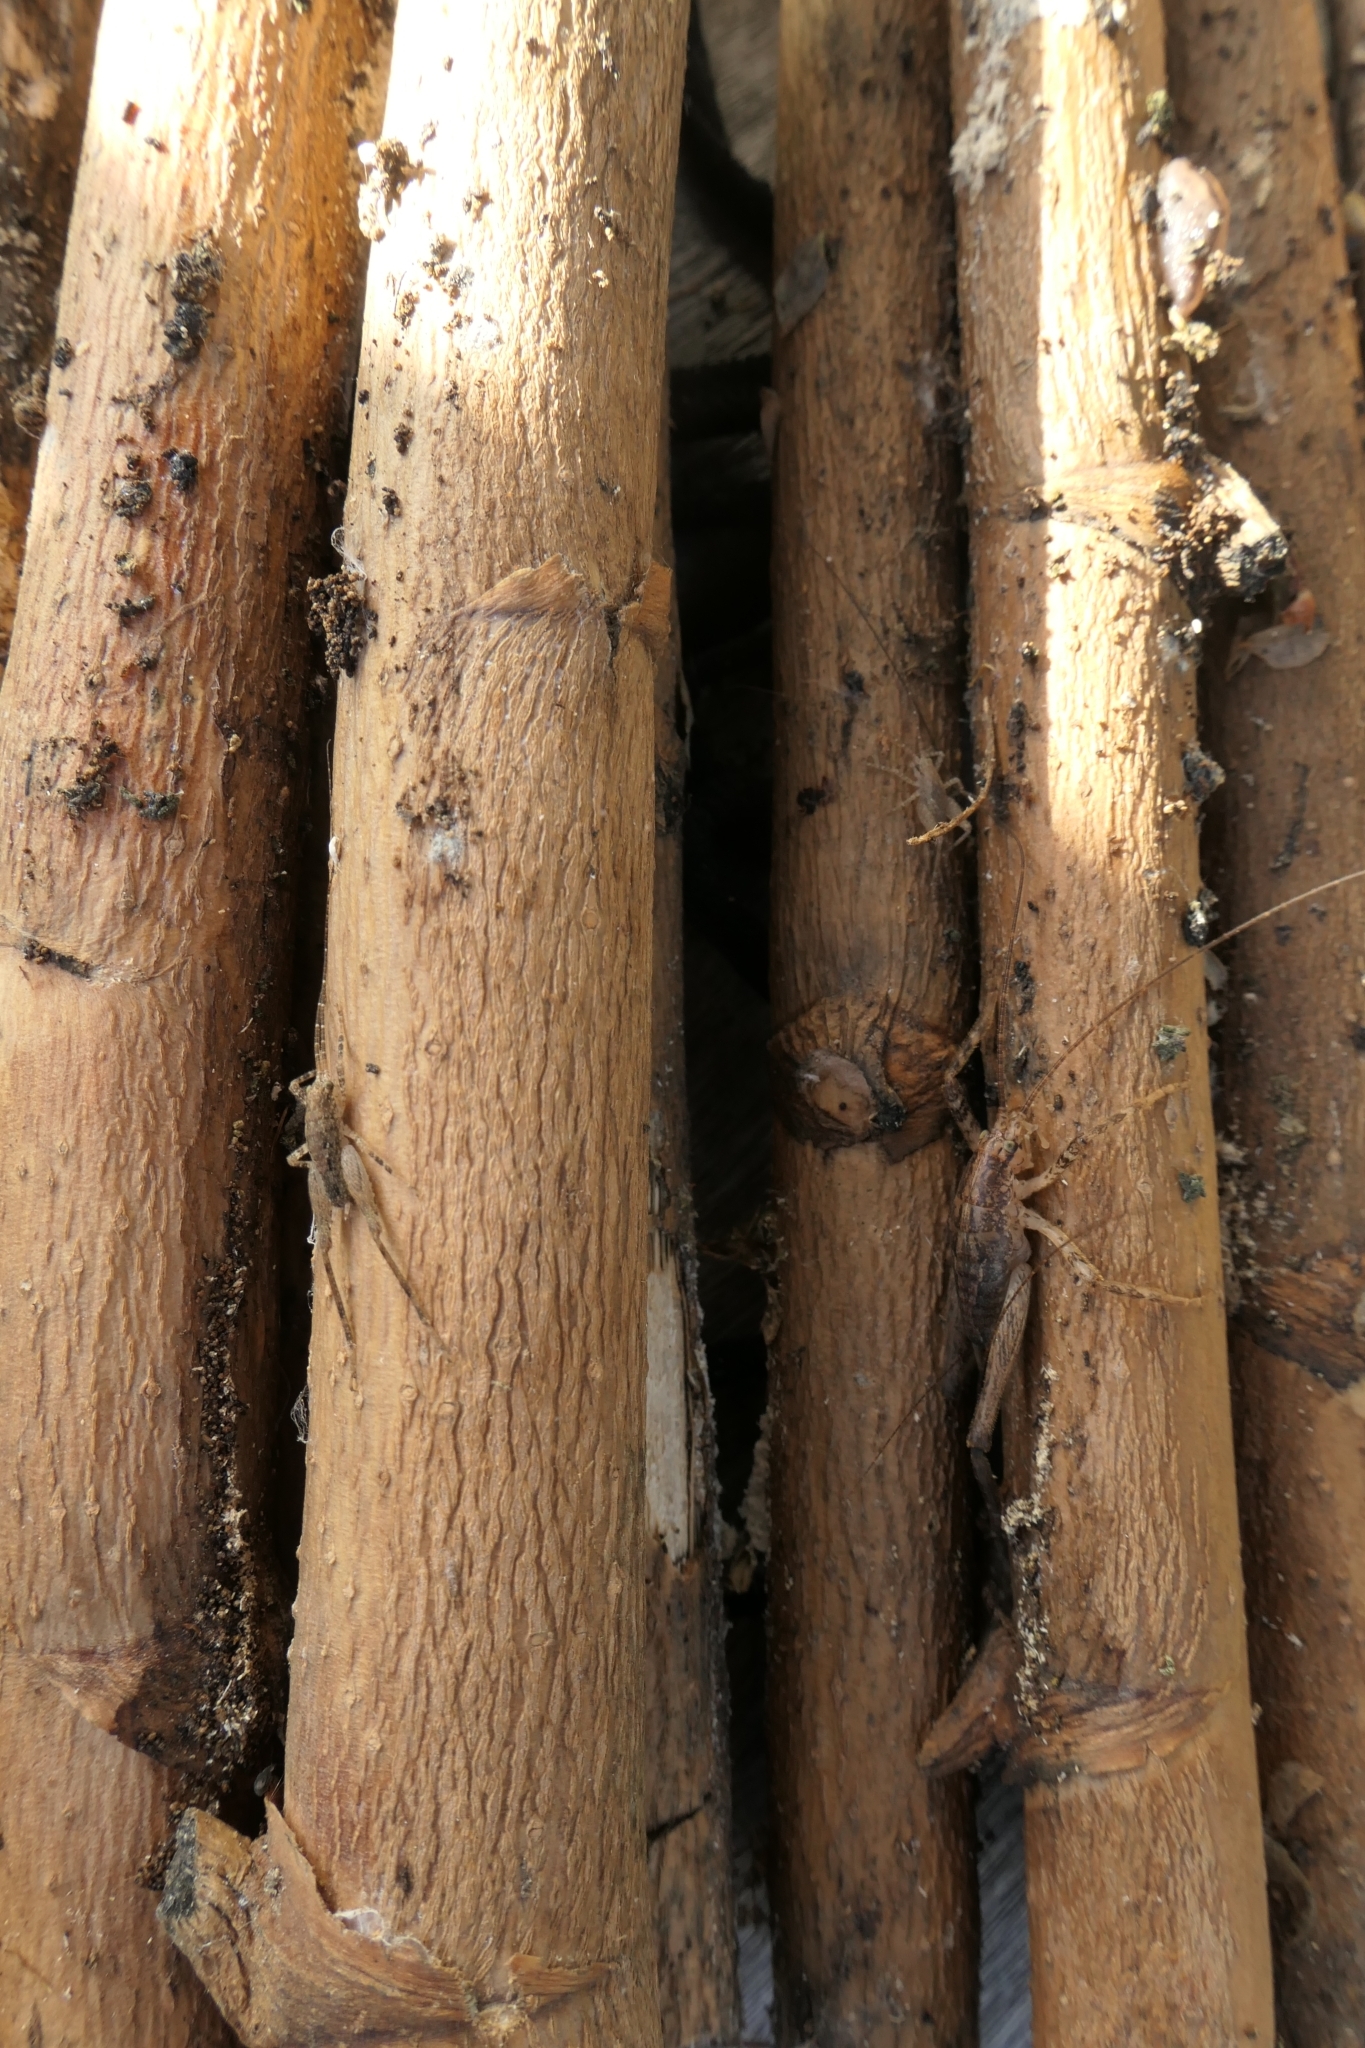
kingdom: Animalia
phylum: Arthropoda
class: Insecta
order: Orthoptera
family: Rhaphidophoridae
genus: Isoplectron
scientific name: Isoplectron armatum
